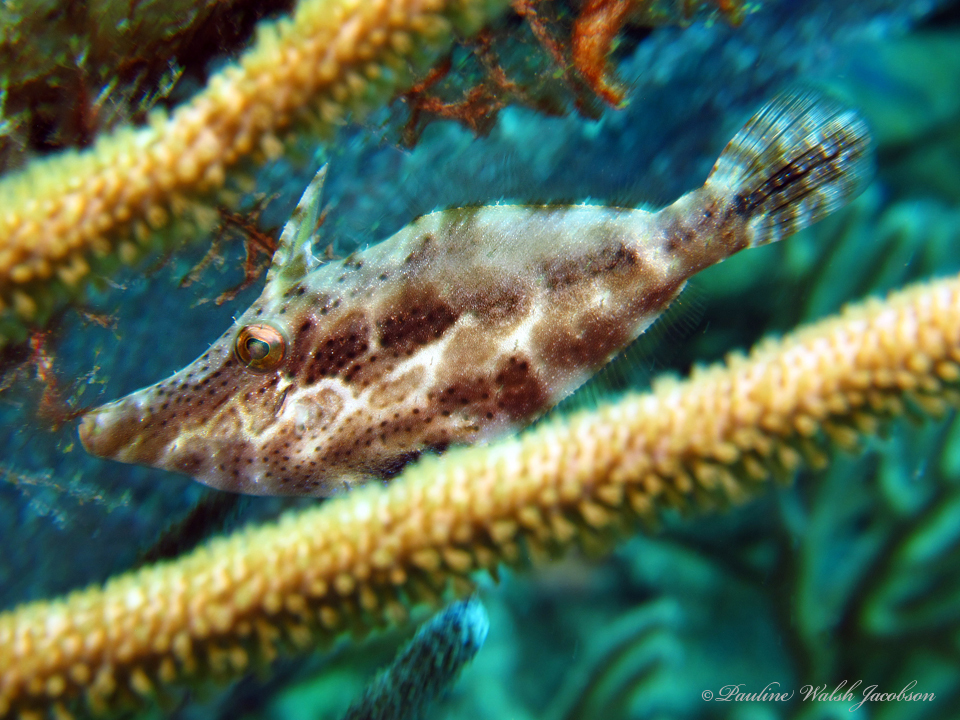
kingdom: Animalia
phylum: Chordata
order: Tetraodontiformes
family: Monacanthidae
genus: Monacanthus
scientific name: Monacanthus tuckeri
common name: Slender filefish
